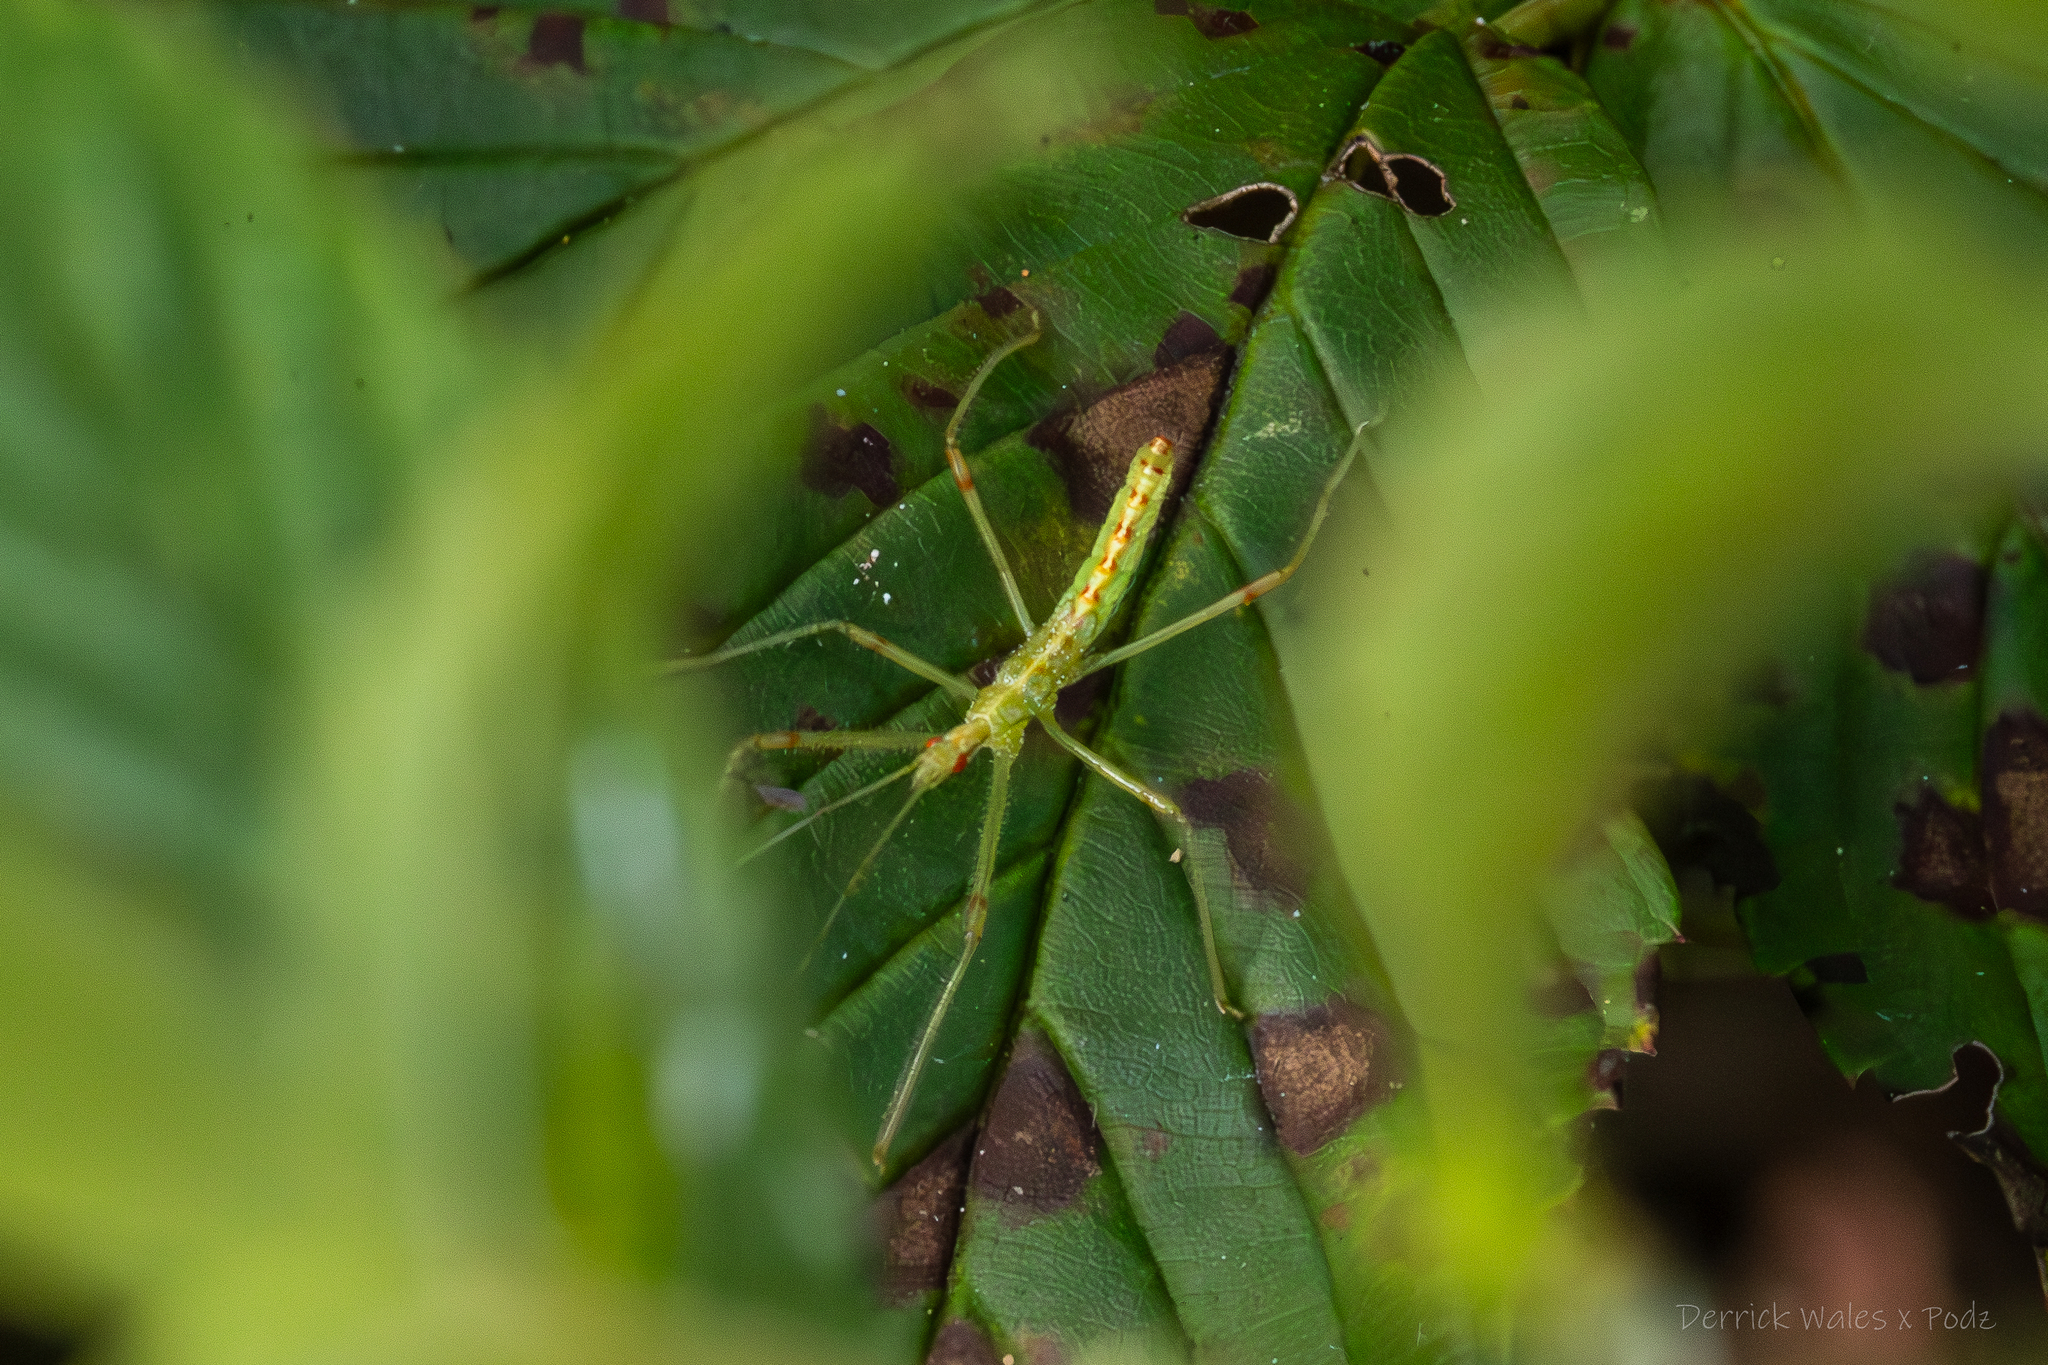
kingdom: Animalia
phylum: Arthropoda
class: Insecta
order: Hemiptera
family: Reduviidae
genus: Zelus
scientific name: Zelus luridus
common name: Pale green assassin bug
